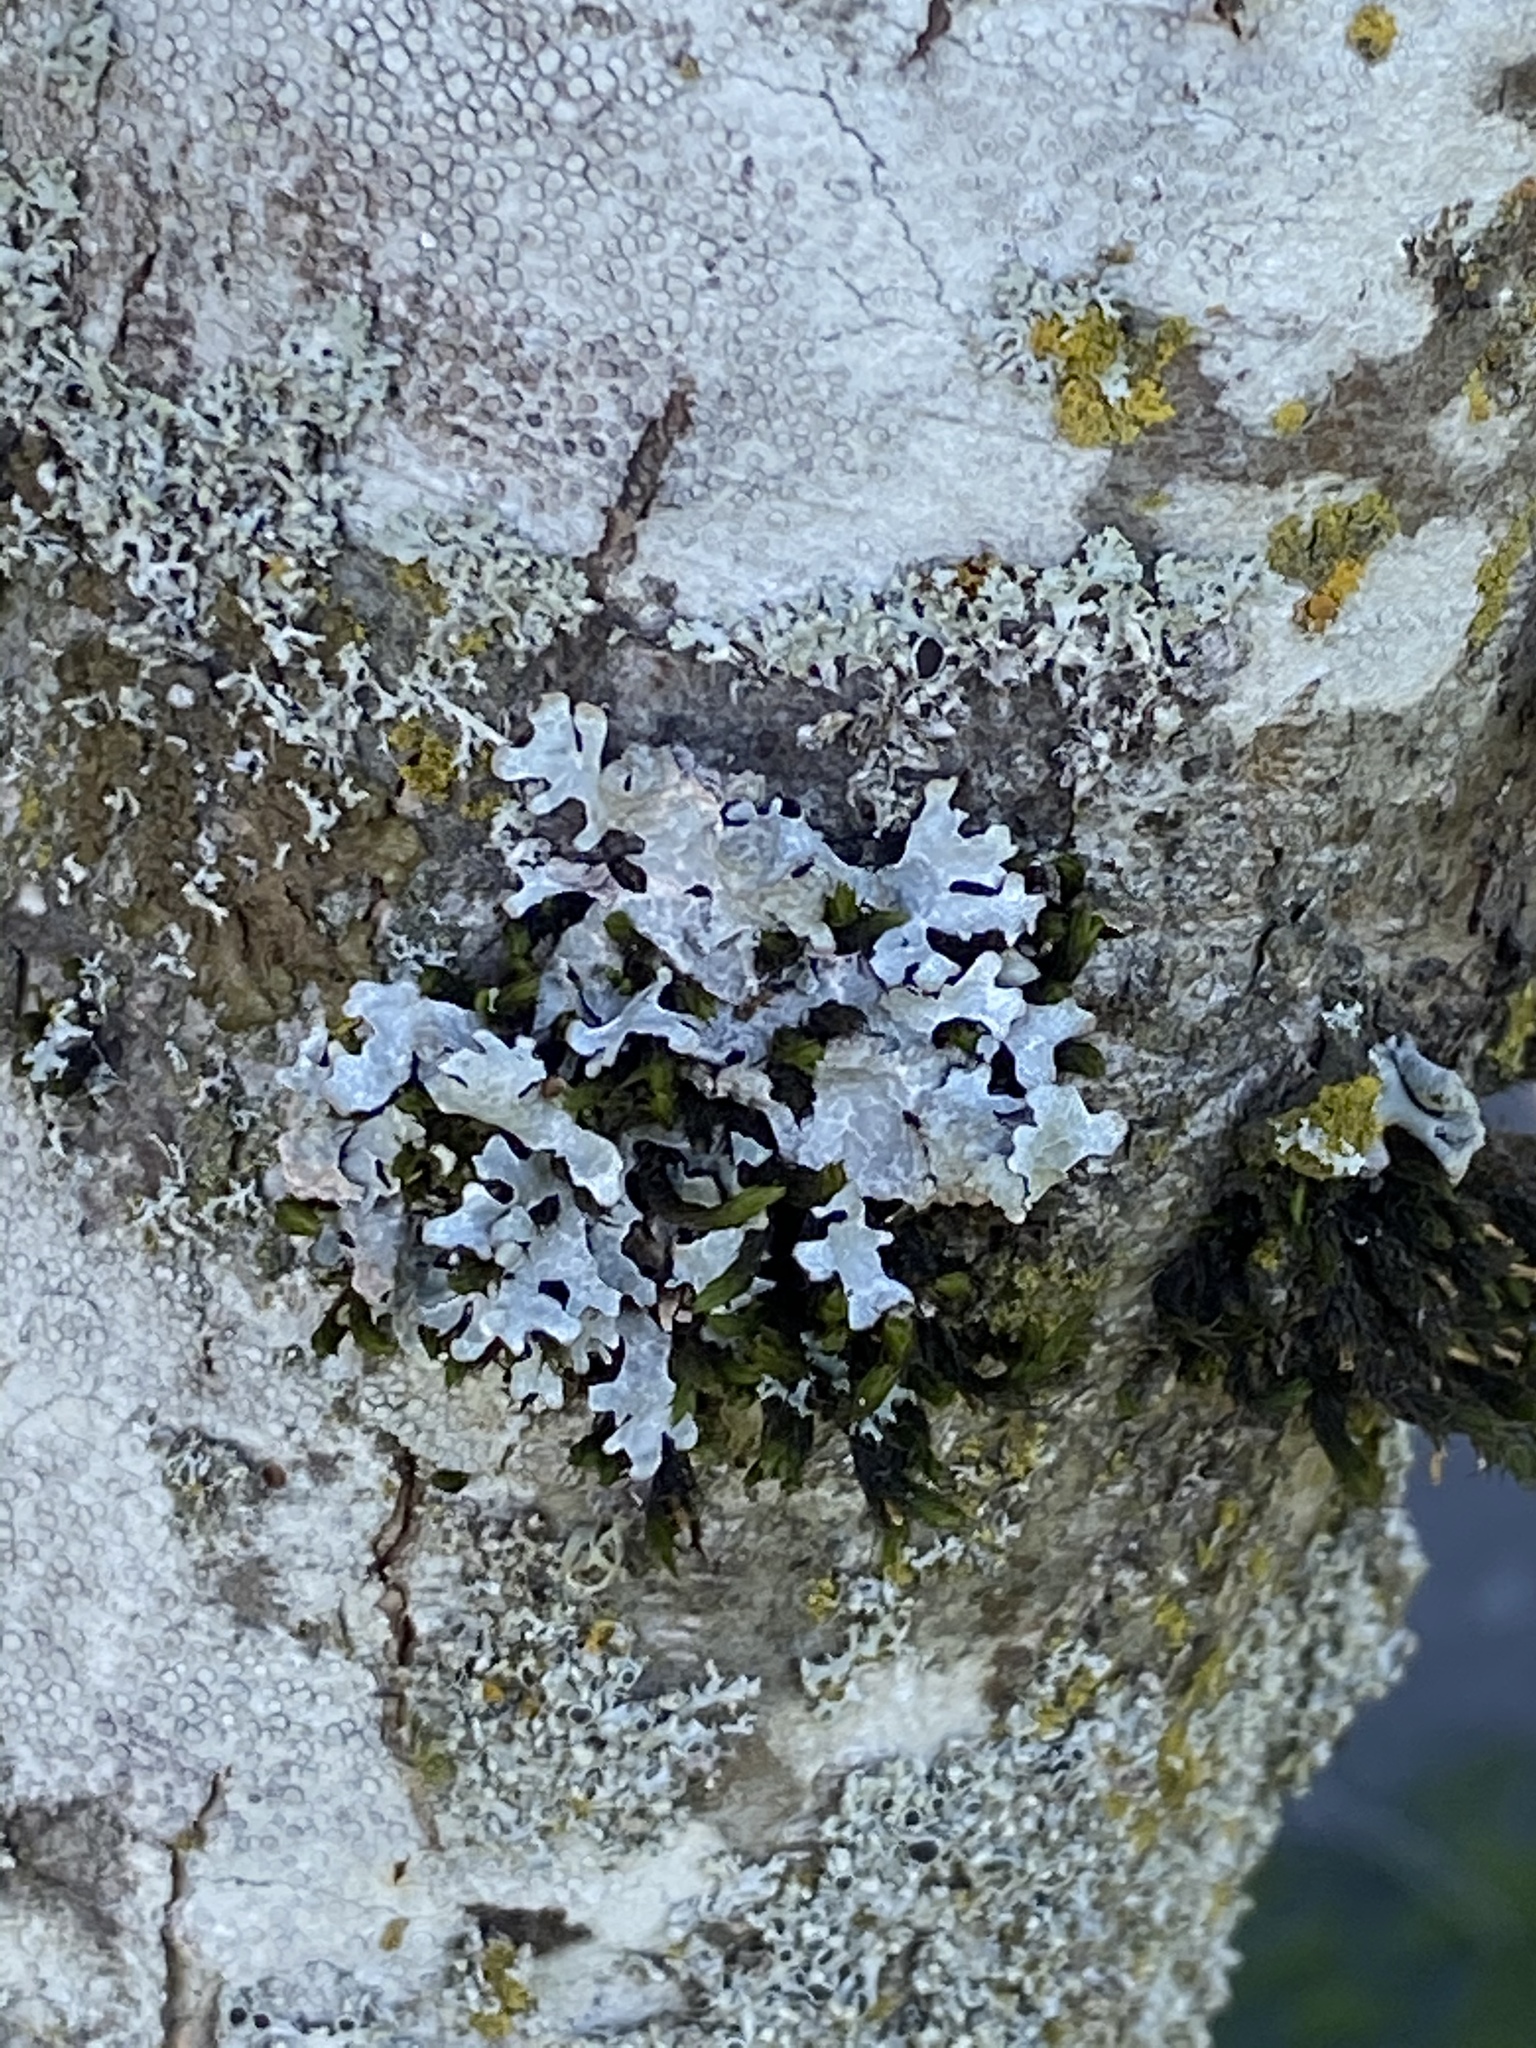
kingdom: Fungi
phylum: Ascomycota
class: Lecanoromycetes
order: Lecanorales
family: Parmeliaceae
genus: Parmelia
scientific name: Parmelia sulcata
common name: Netted shield lichen
